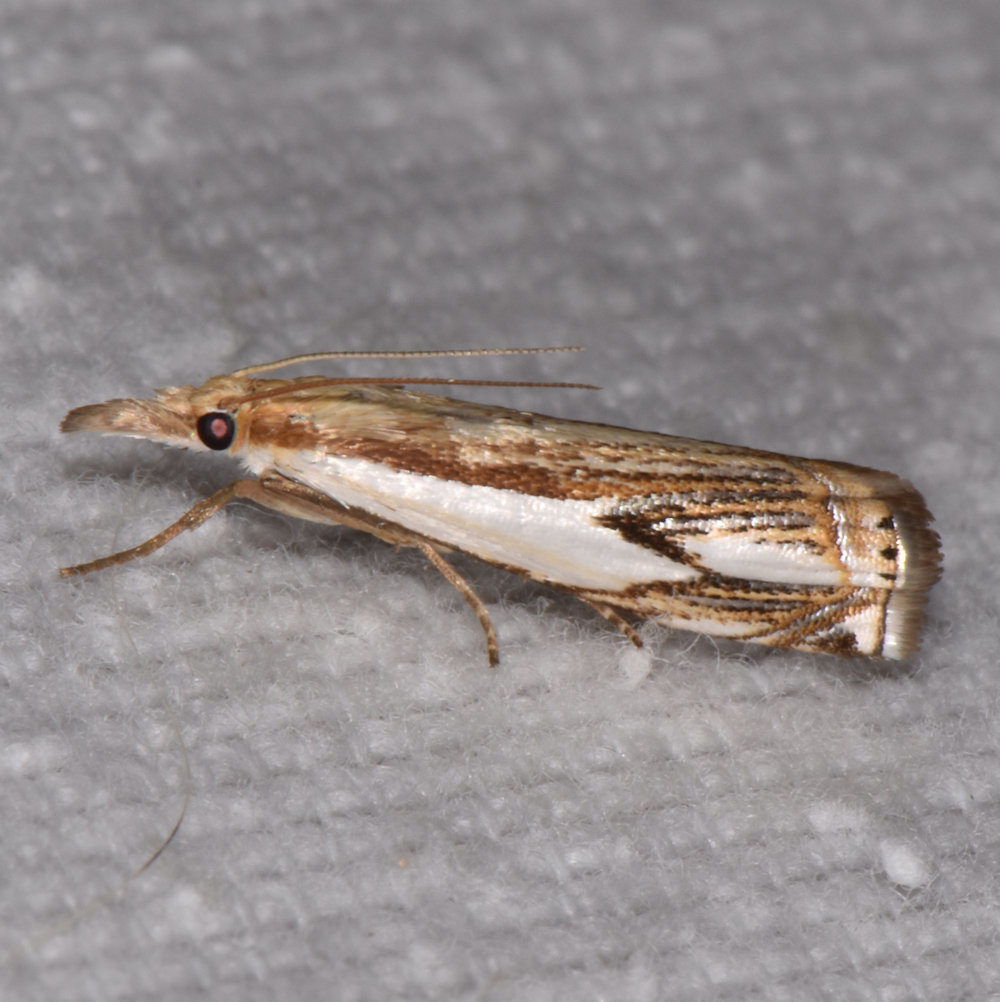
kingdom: Animalia
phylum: Arthropoda
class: Insecta
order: Lepidoptera
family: Crambidae
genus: Crambus
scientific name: Crambus agitatellus
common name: Double-banded grass-veneer
